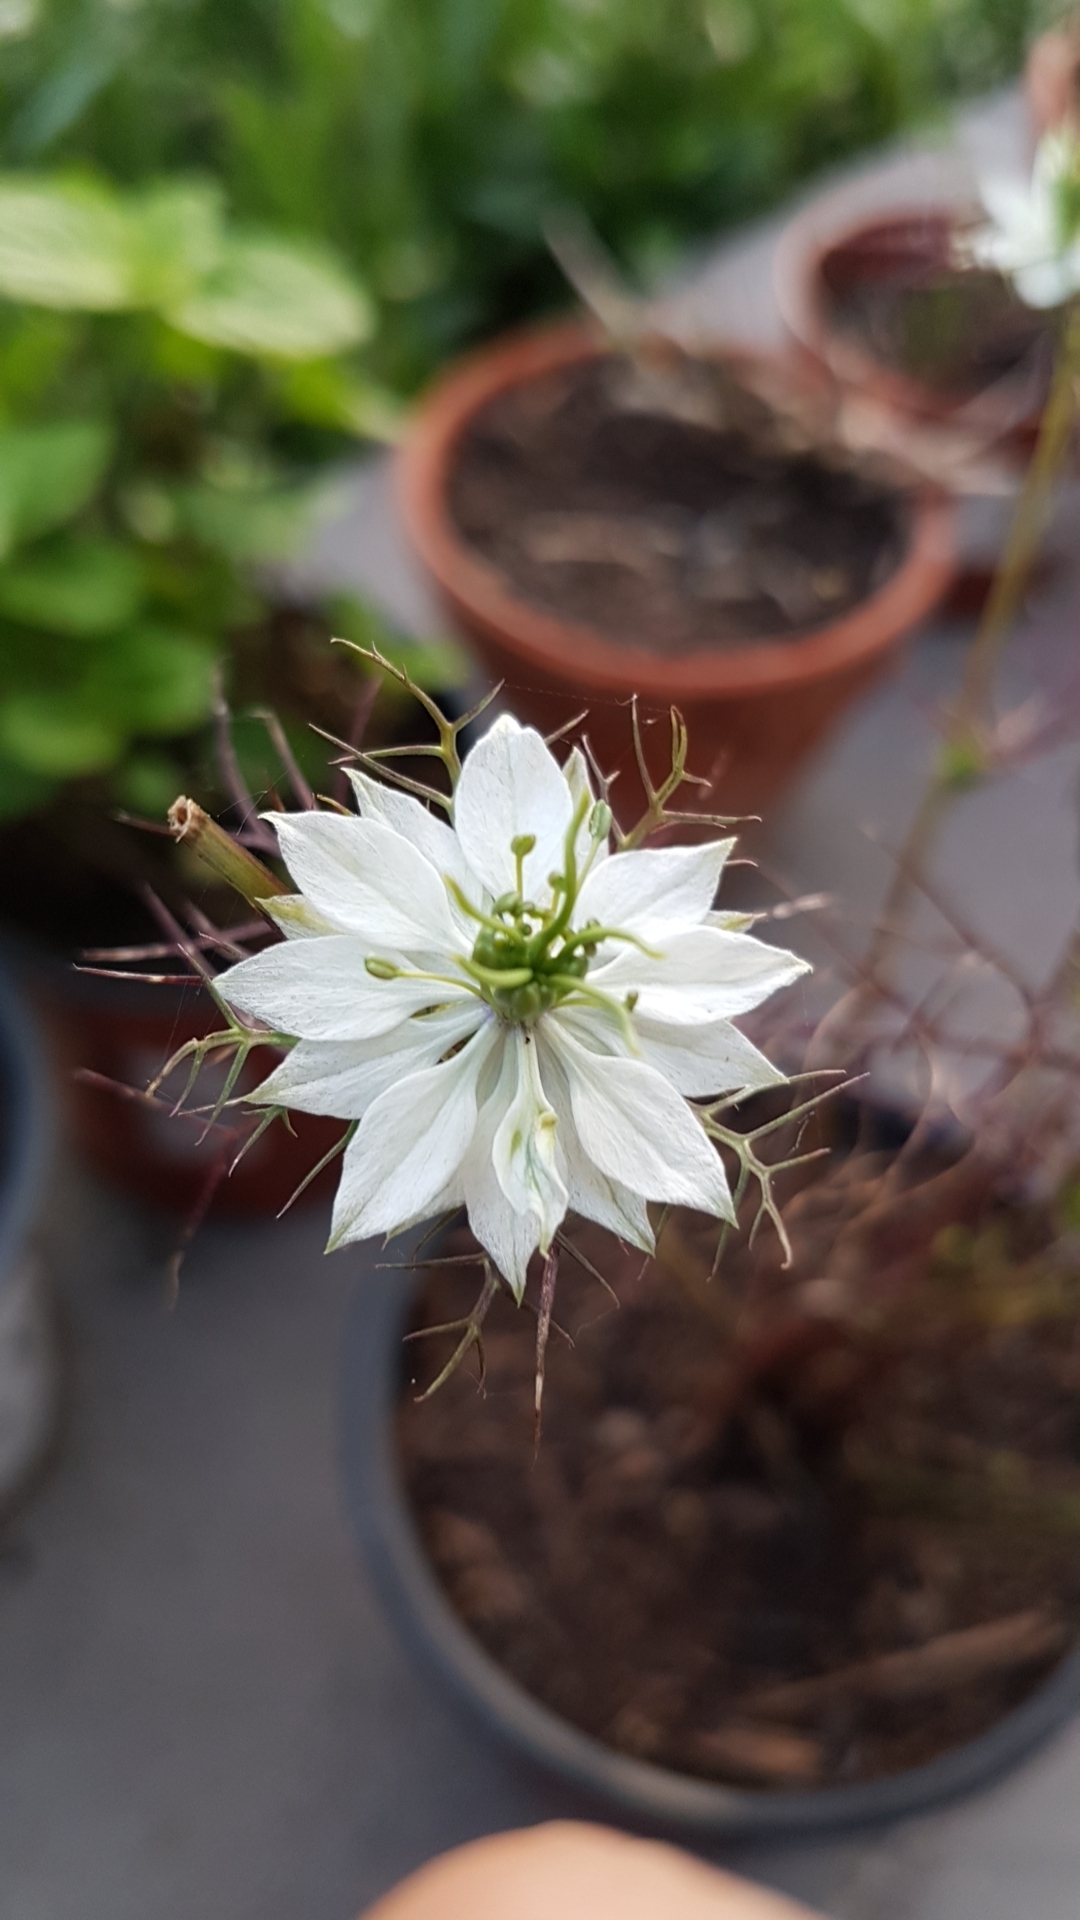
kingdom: Plantae
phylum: Tracheophyta
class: Magnoliopsida
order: Ranunculales
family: Ranunculaceae
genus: Nigella
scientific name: Nigella damascena
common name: Love-in-a-mist
